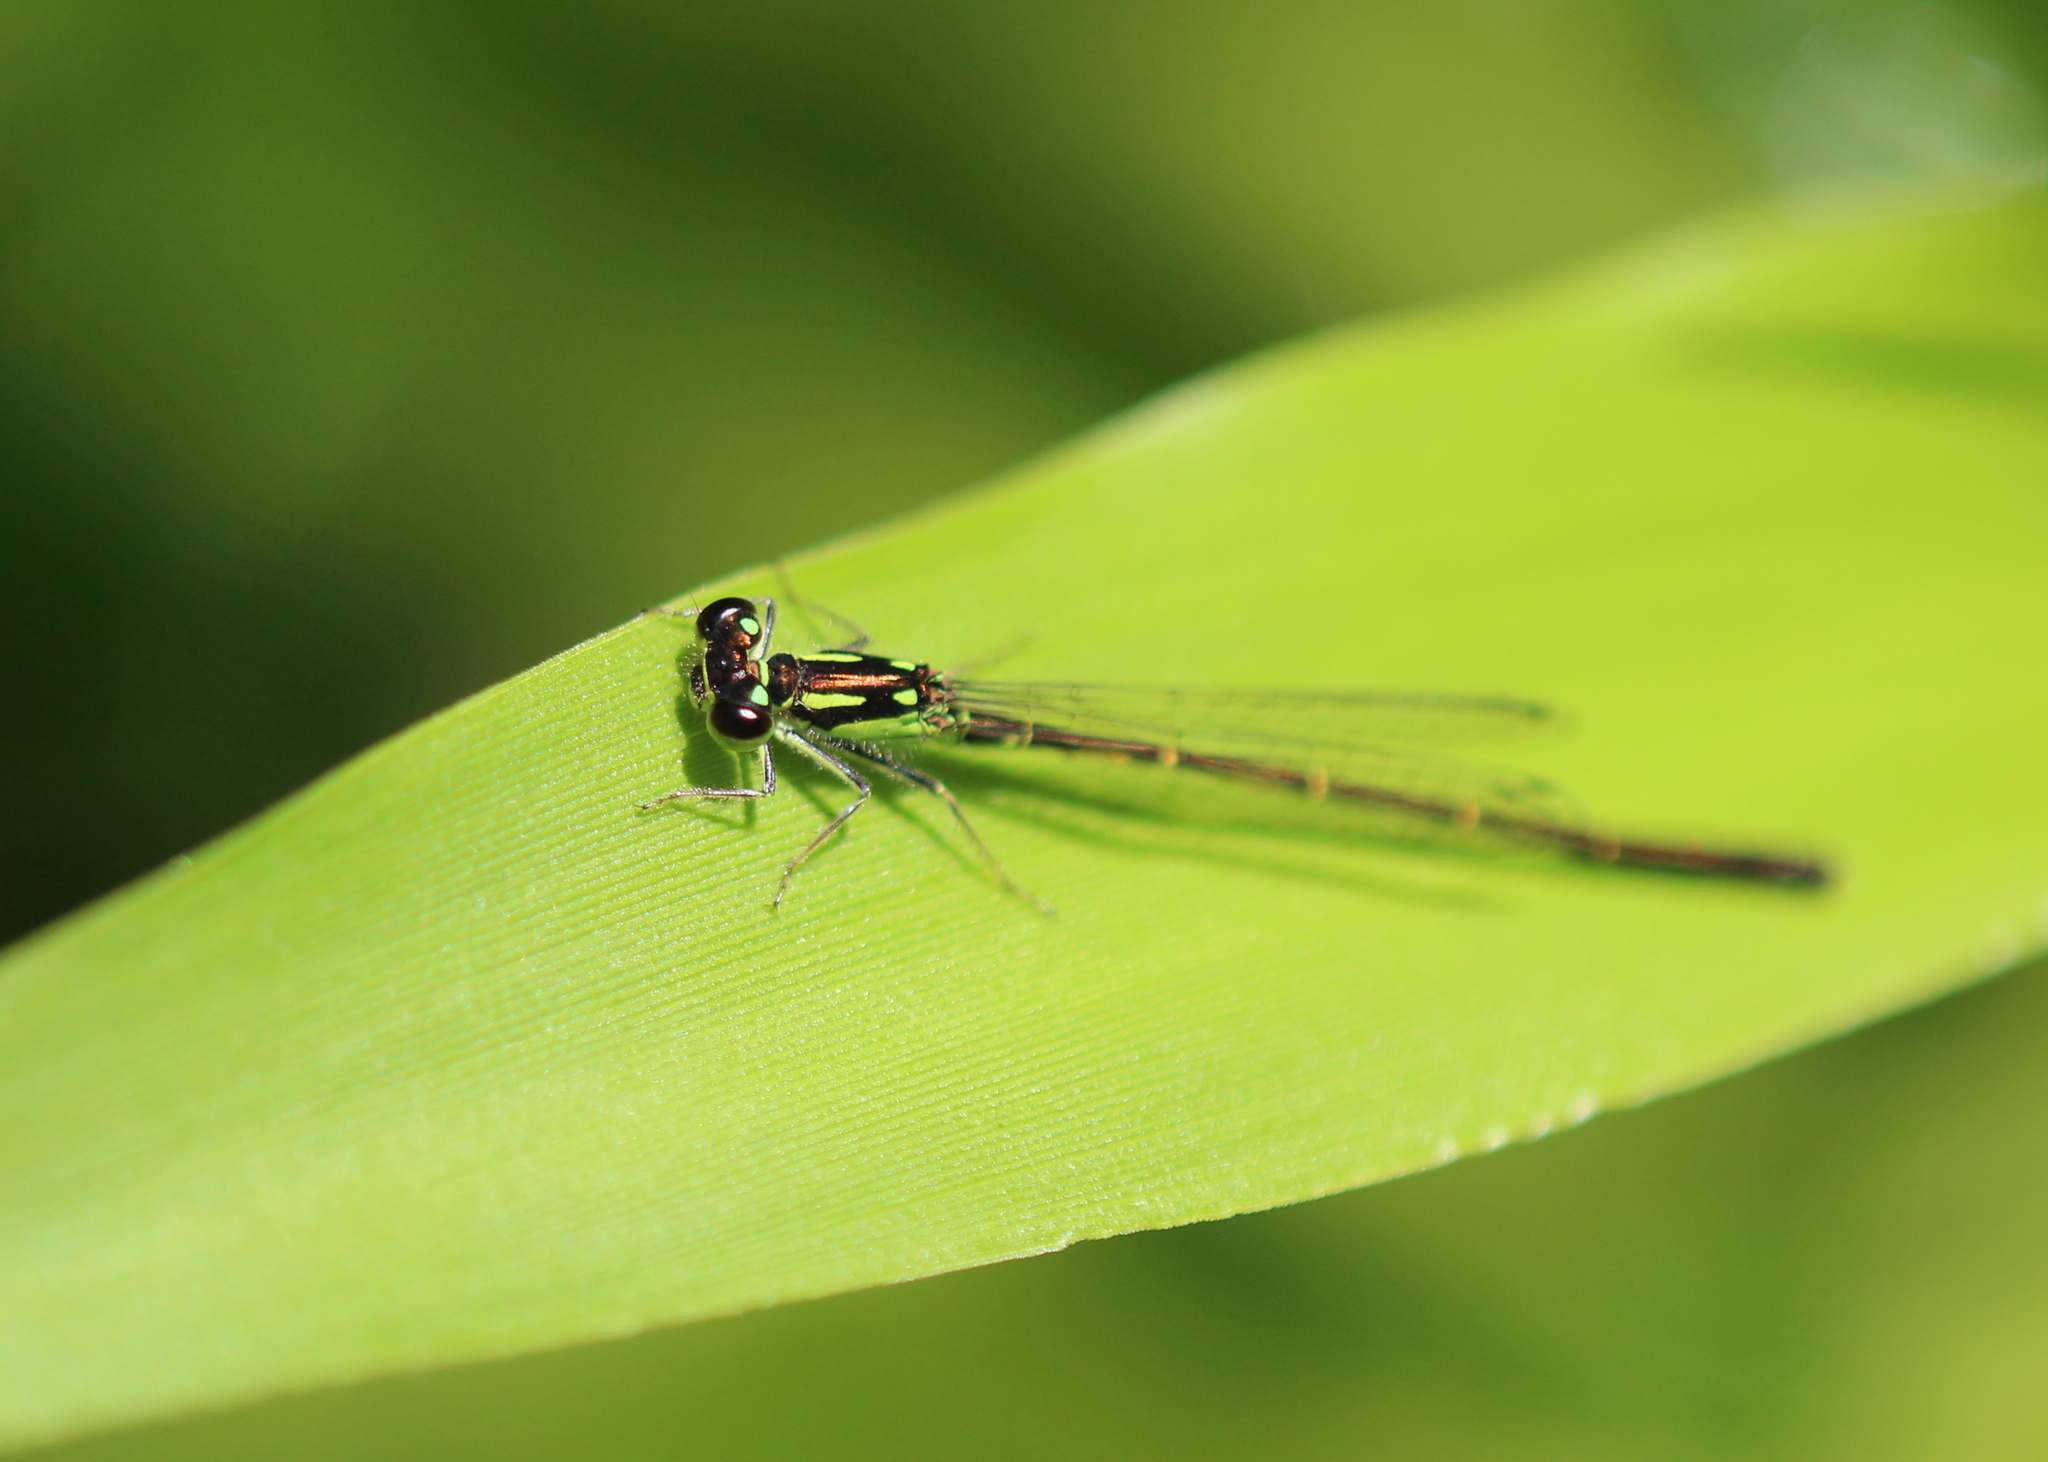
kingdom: Animalia
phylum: Arthropoda
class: Insecta
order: Odonata
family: Coenagrionidae
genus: Ischnura
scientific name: Ischnura posita
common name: Fragile forktail
